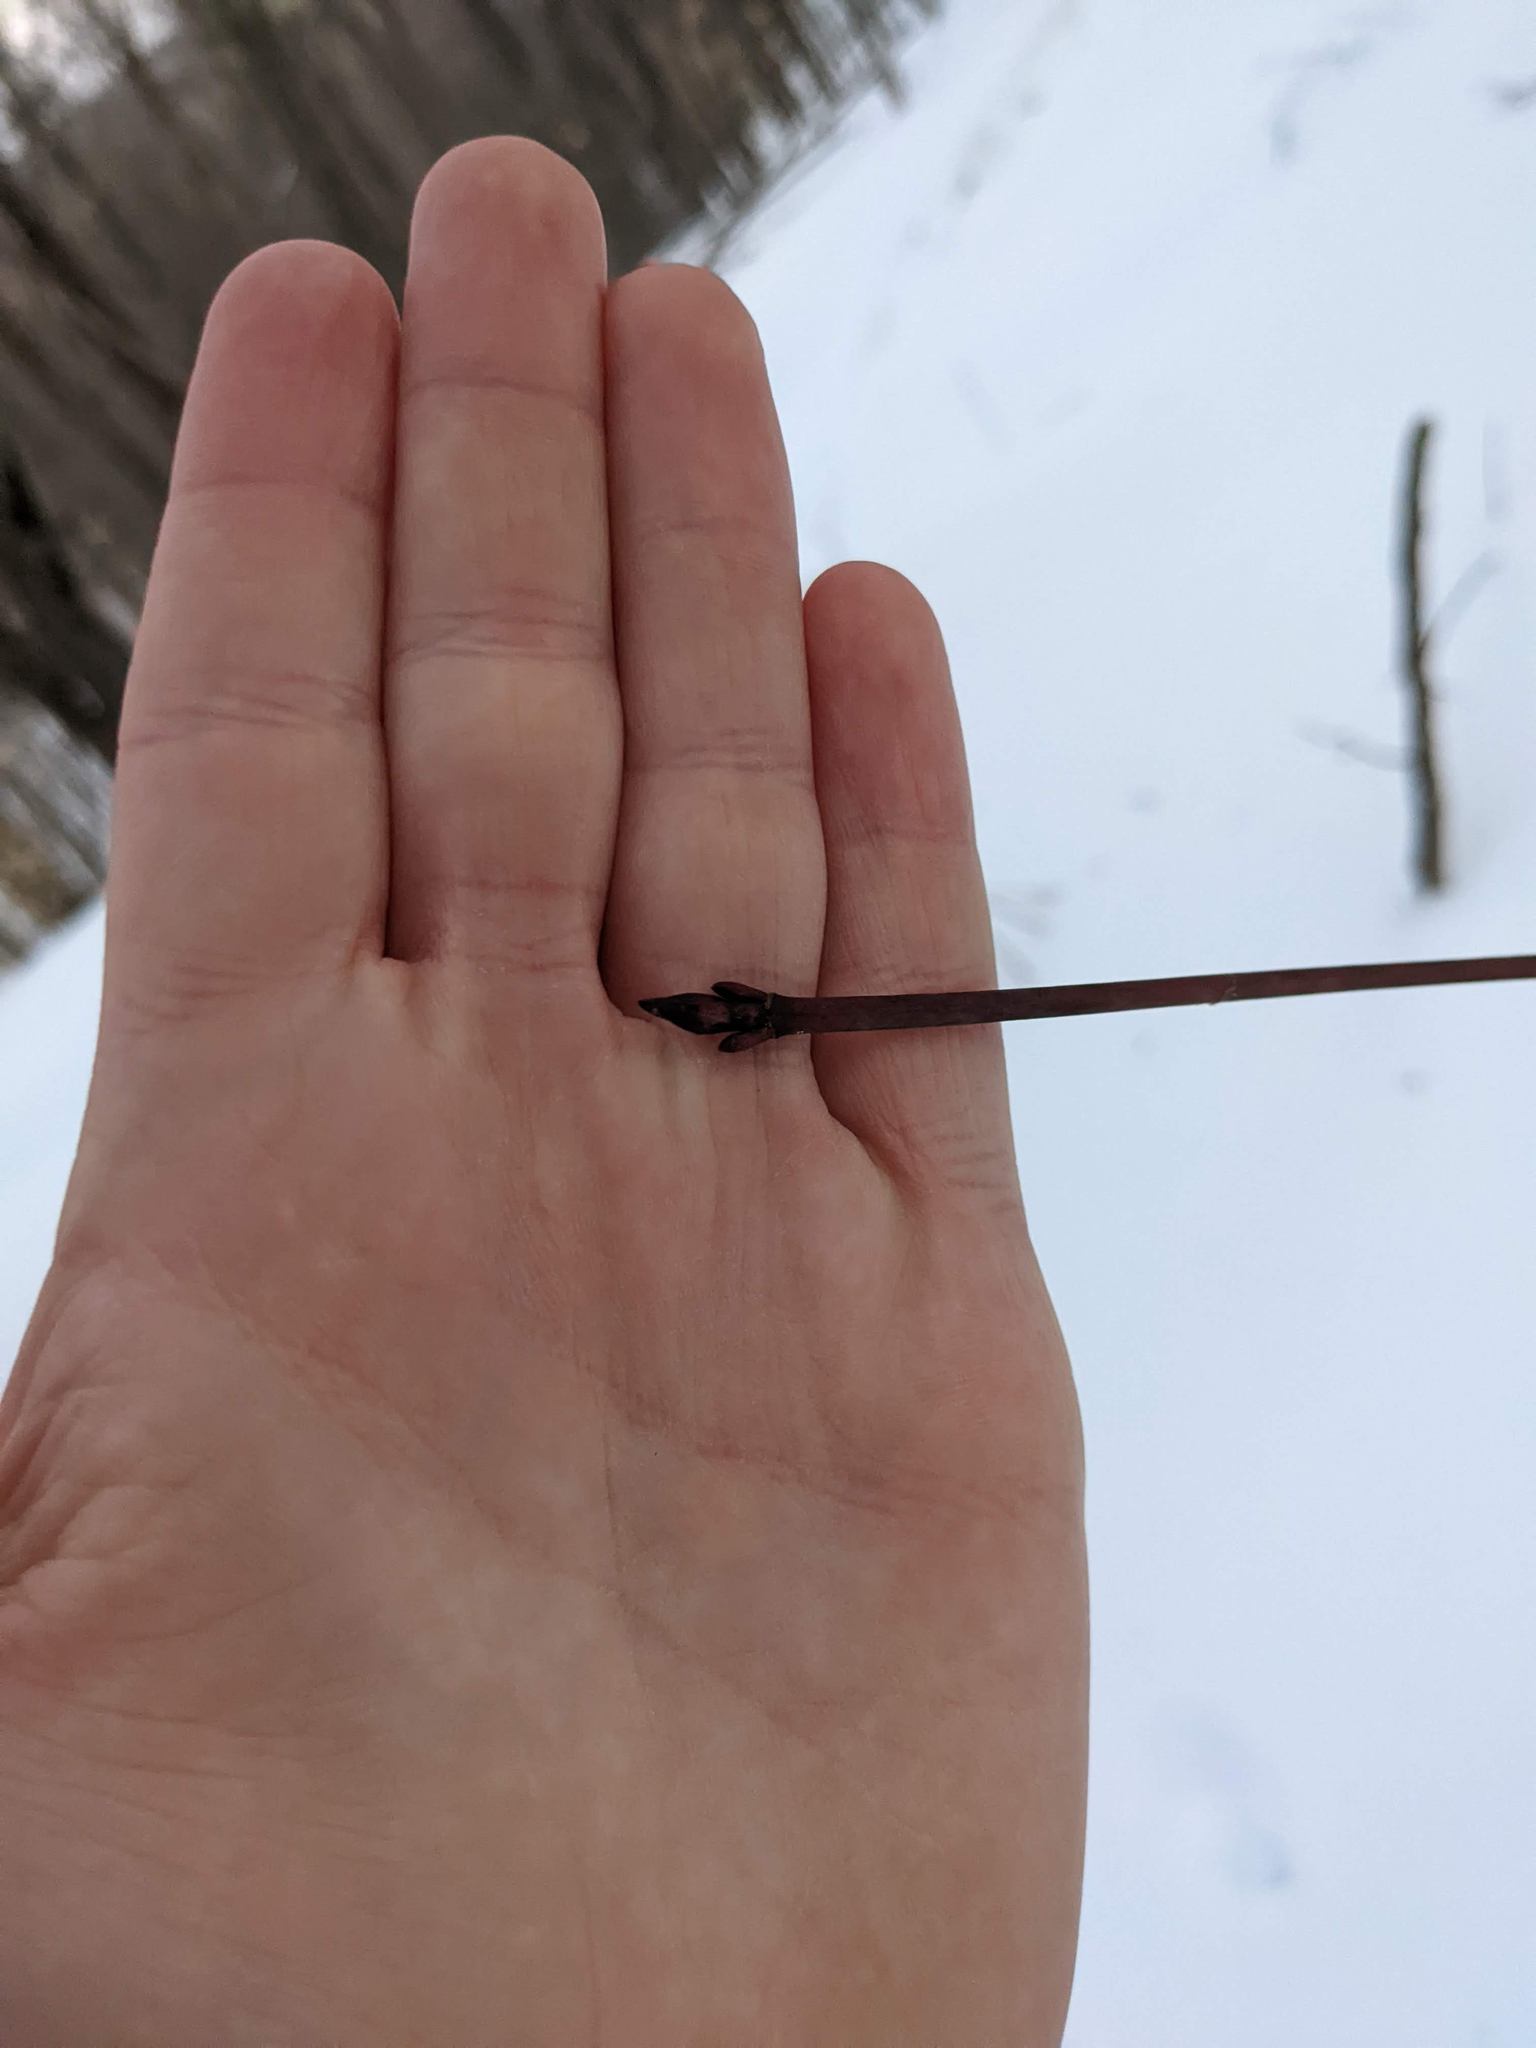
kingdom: Plantae
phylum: Tracheophyta
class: Magnoliopsida
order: Sapindales
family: Sapindaceae
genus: Acer
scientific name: Acer pensylvanicum
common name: Moosewood
